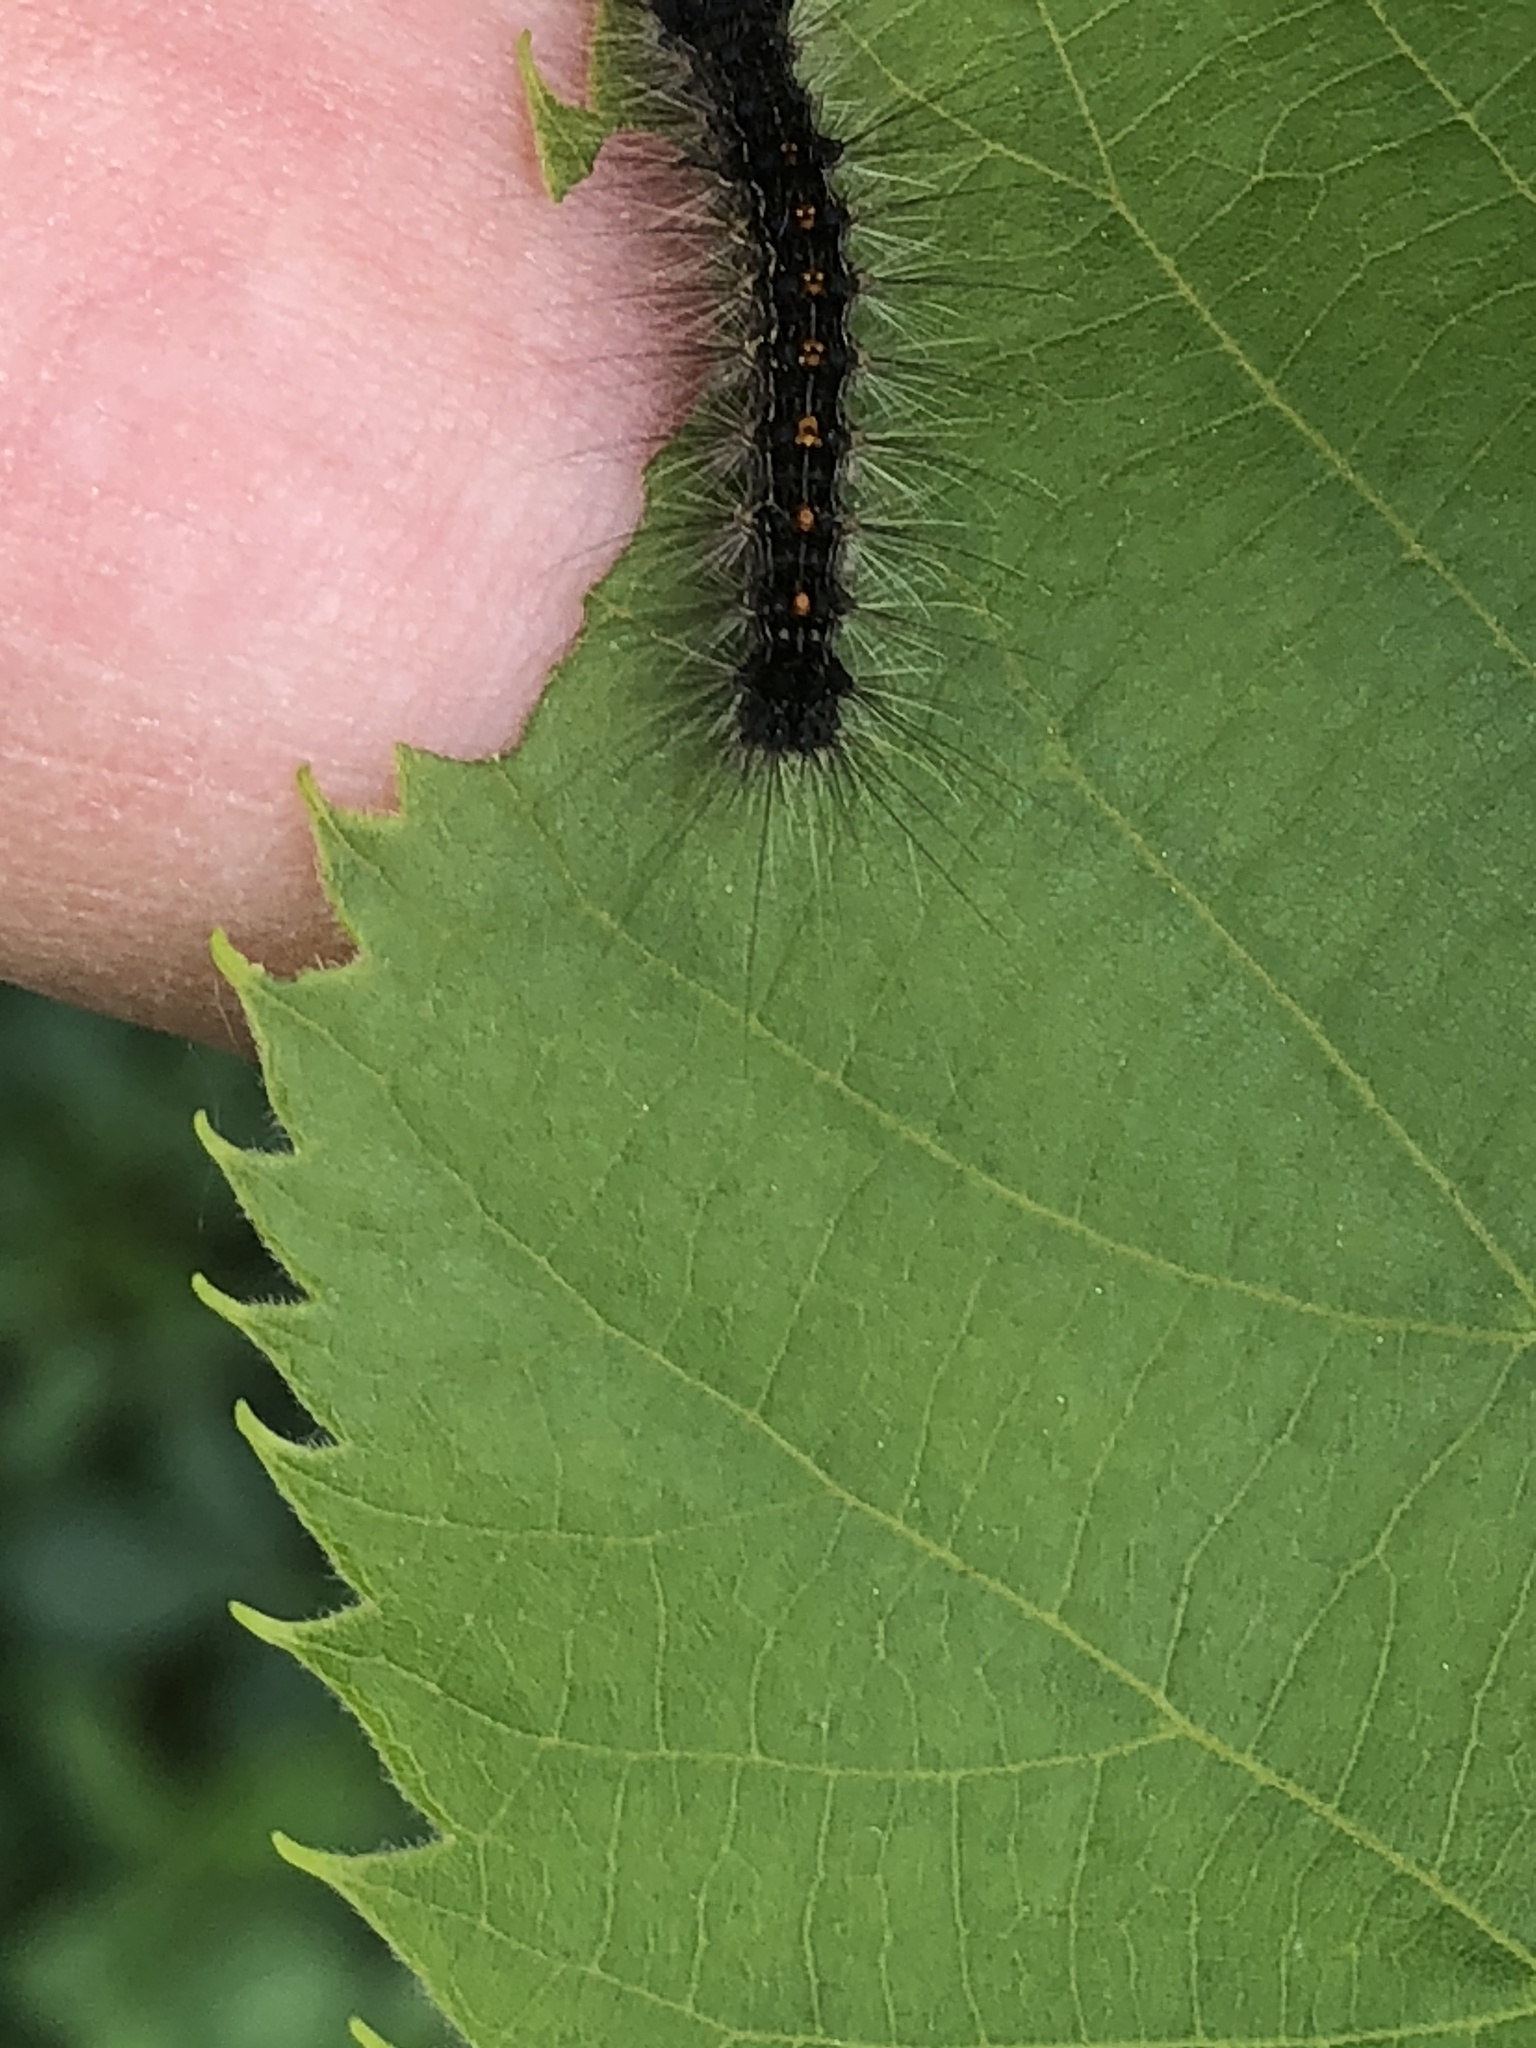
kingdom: Animalia
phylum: Arthropoda
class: Insecta
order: Lepidoptera
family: Erebidae
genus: Lymantria
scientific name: Lymantria dispar
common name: Gypsy moth
